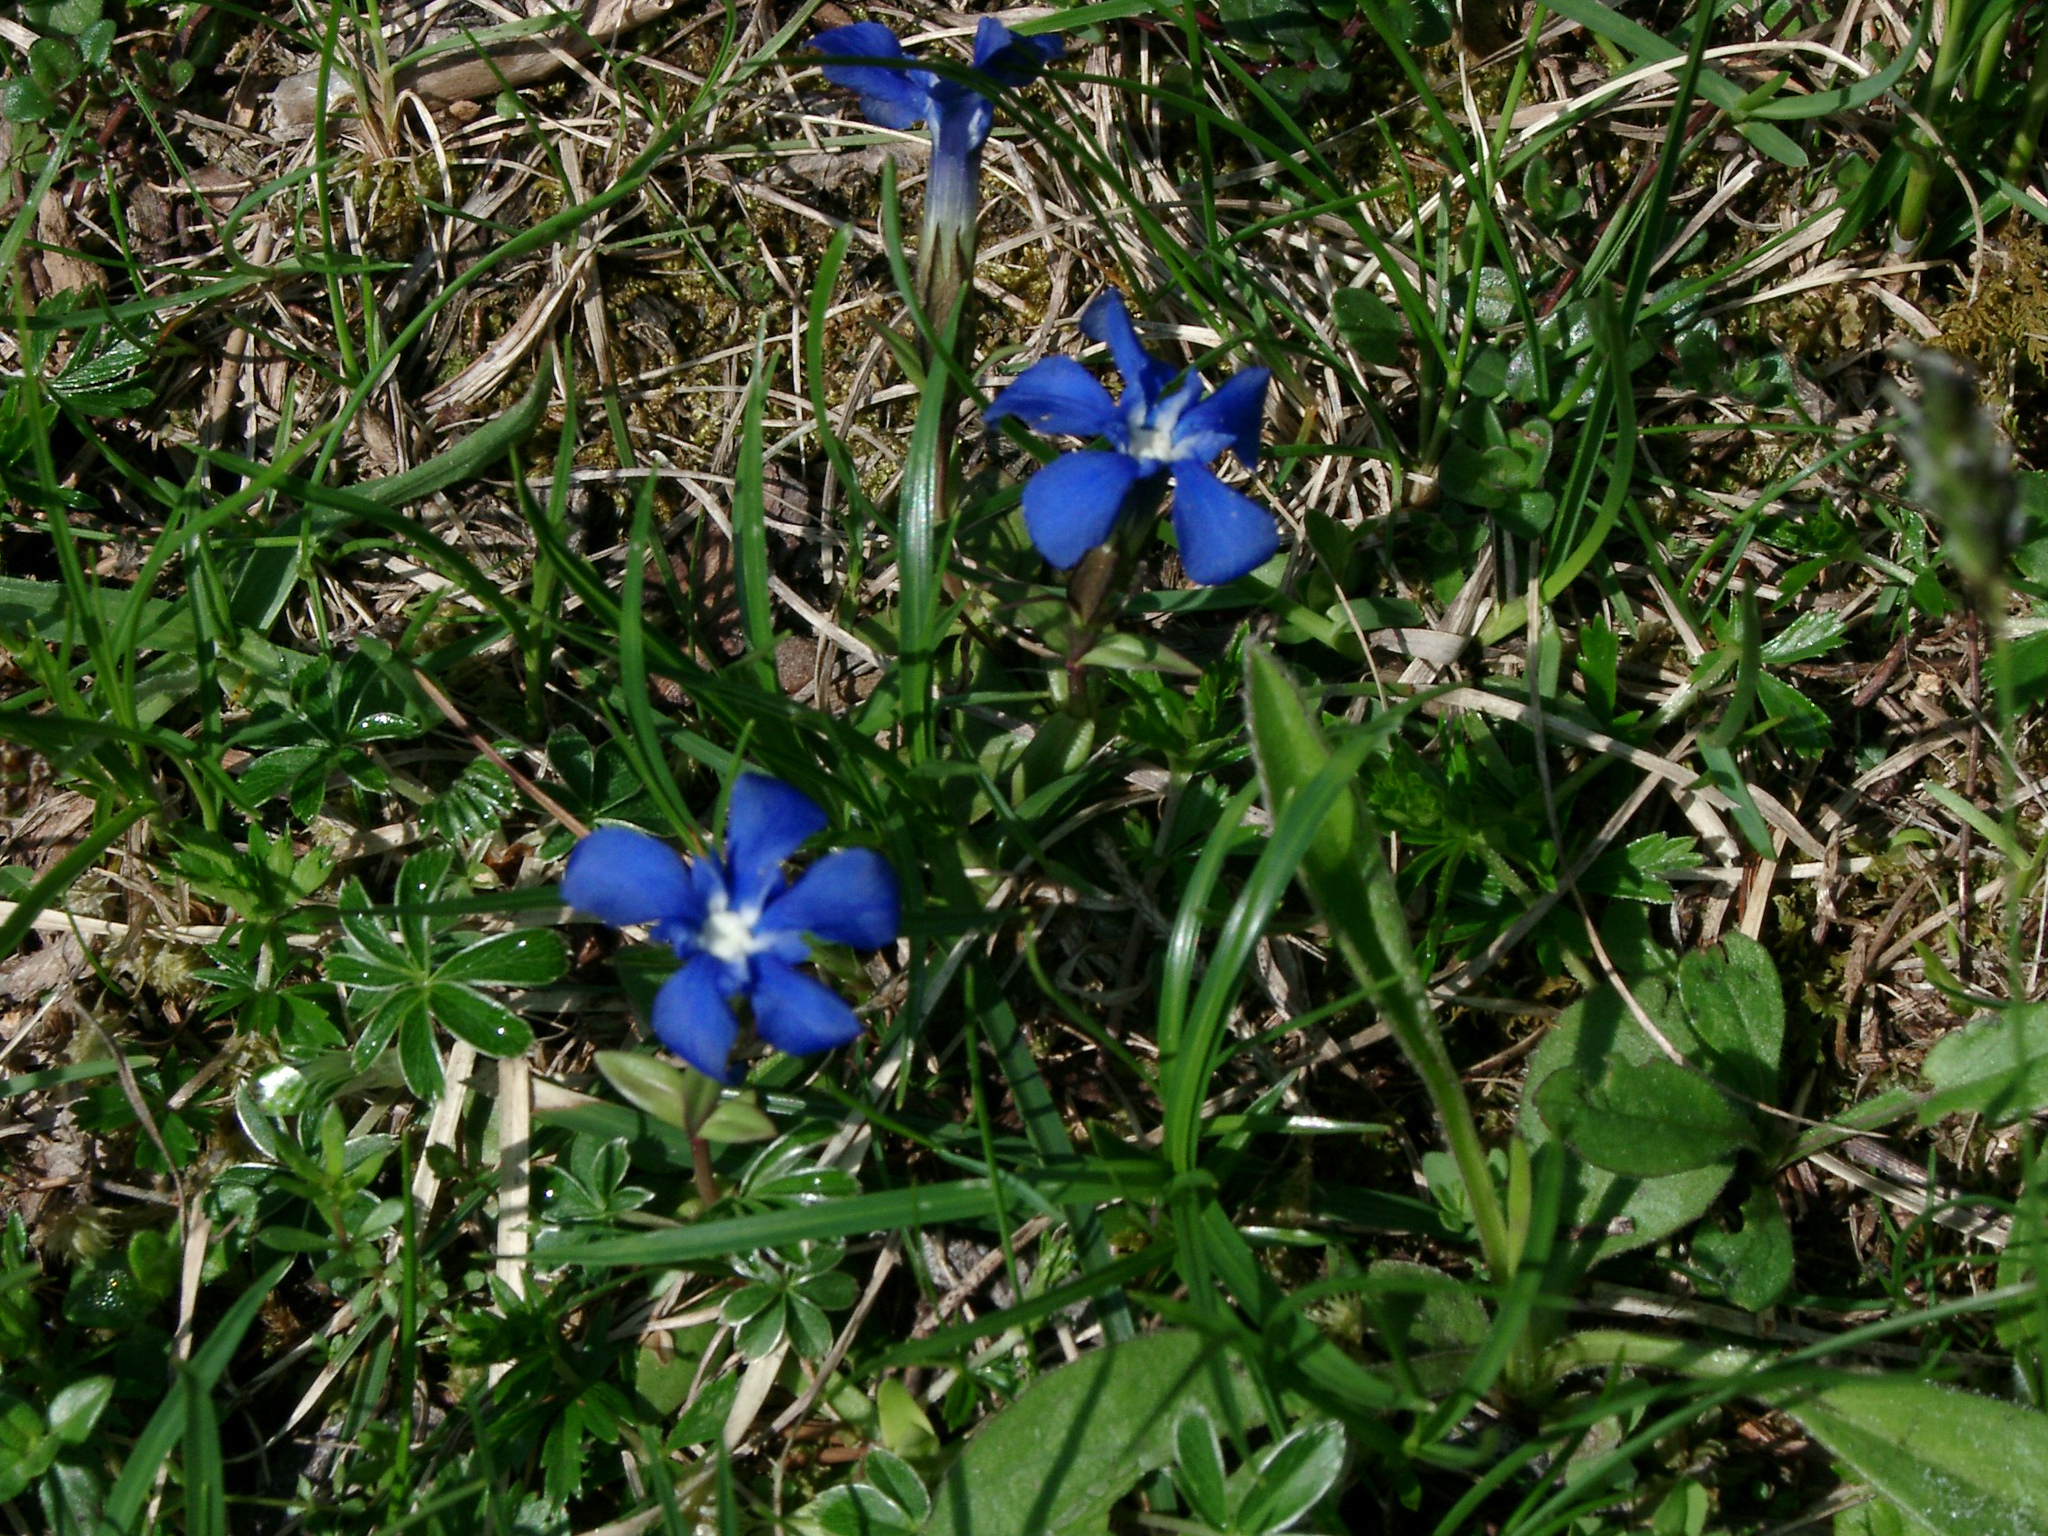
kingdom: Plantae
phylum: Tracheophyta
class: Magnoliopsida
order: Gentianales
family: Gentianaceae
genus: Gentiana
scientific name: Gentiana verna
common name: Spring gentian
